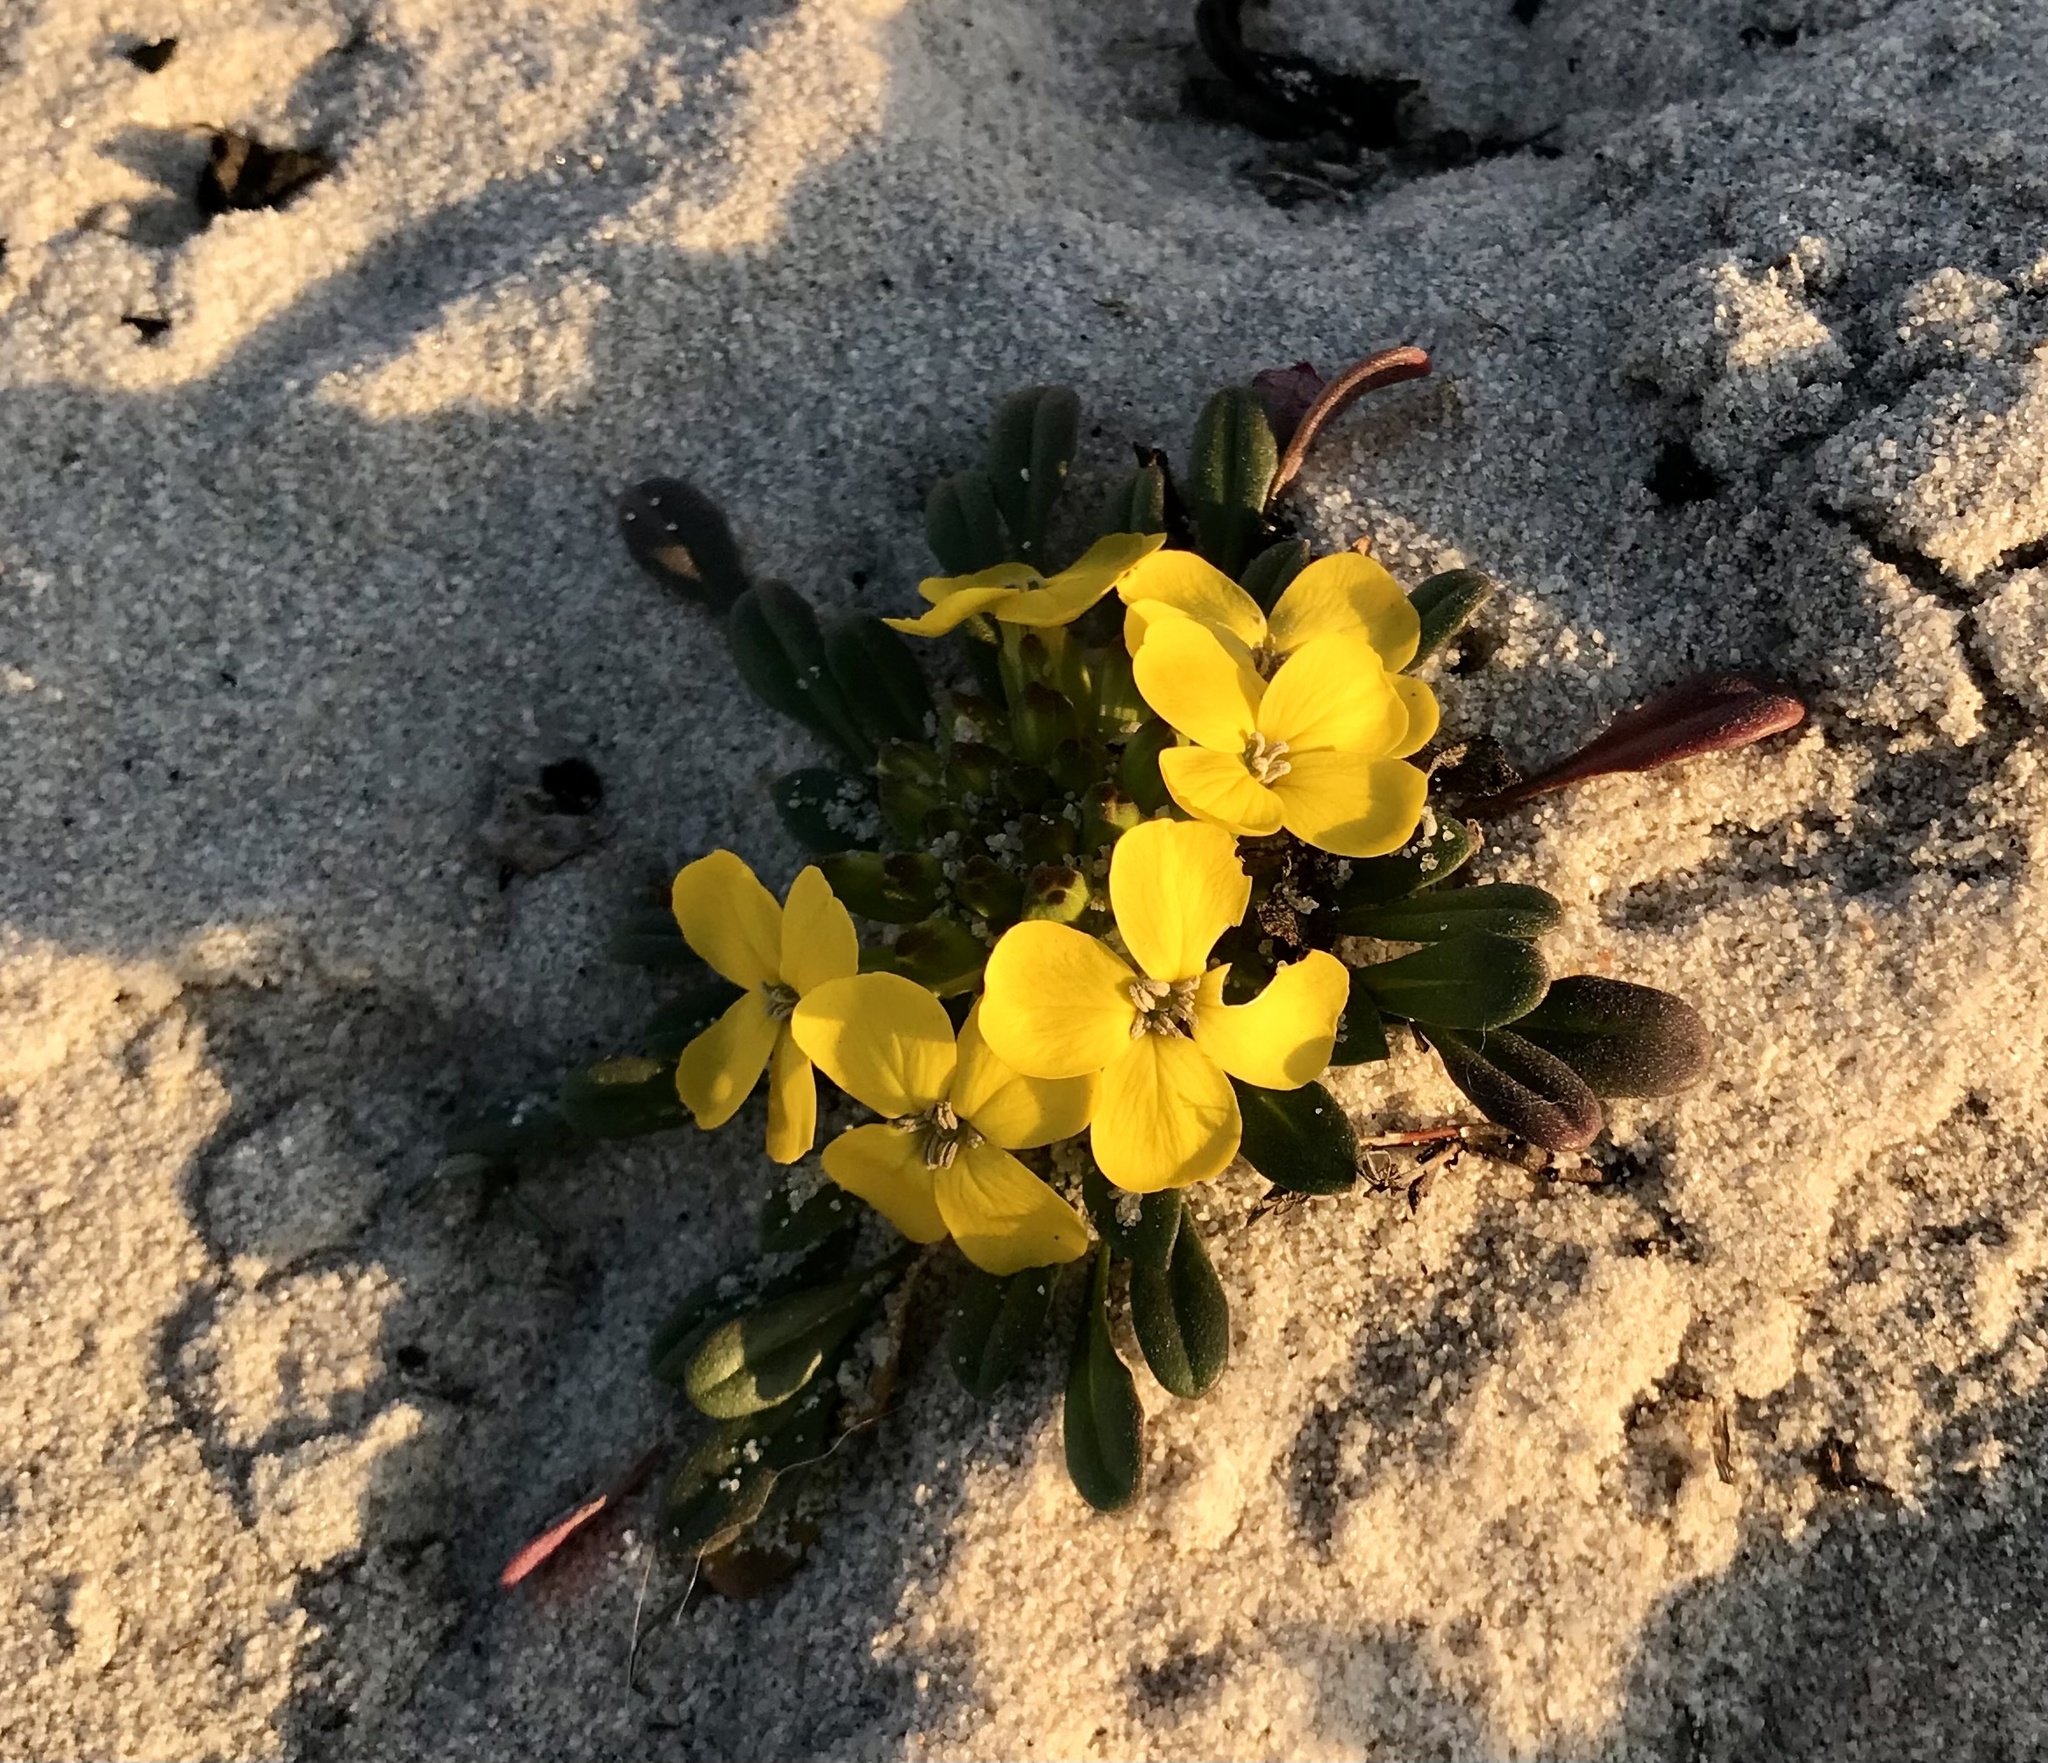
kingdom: Plantae
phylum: Tracheophyta
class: Magnoliopsida
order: Brassicales
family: Brassicaceae
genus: Erysimum
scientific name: Erysimum menziesii
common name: Menzies's wallflower
